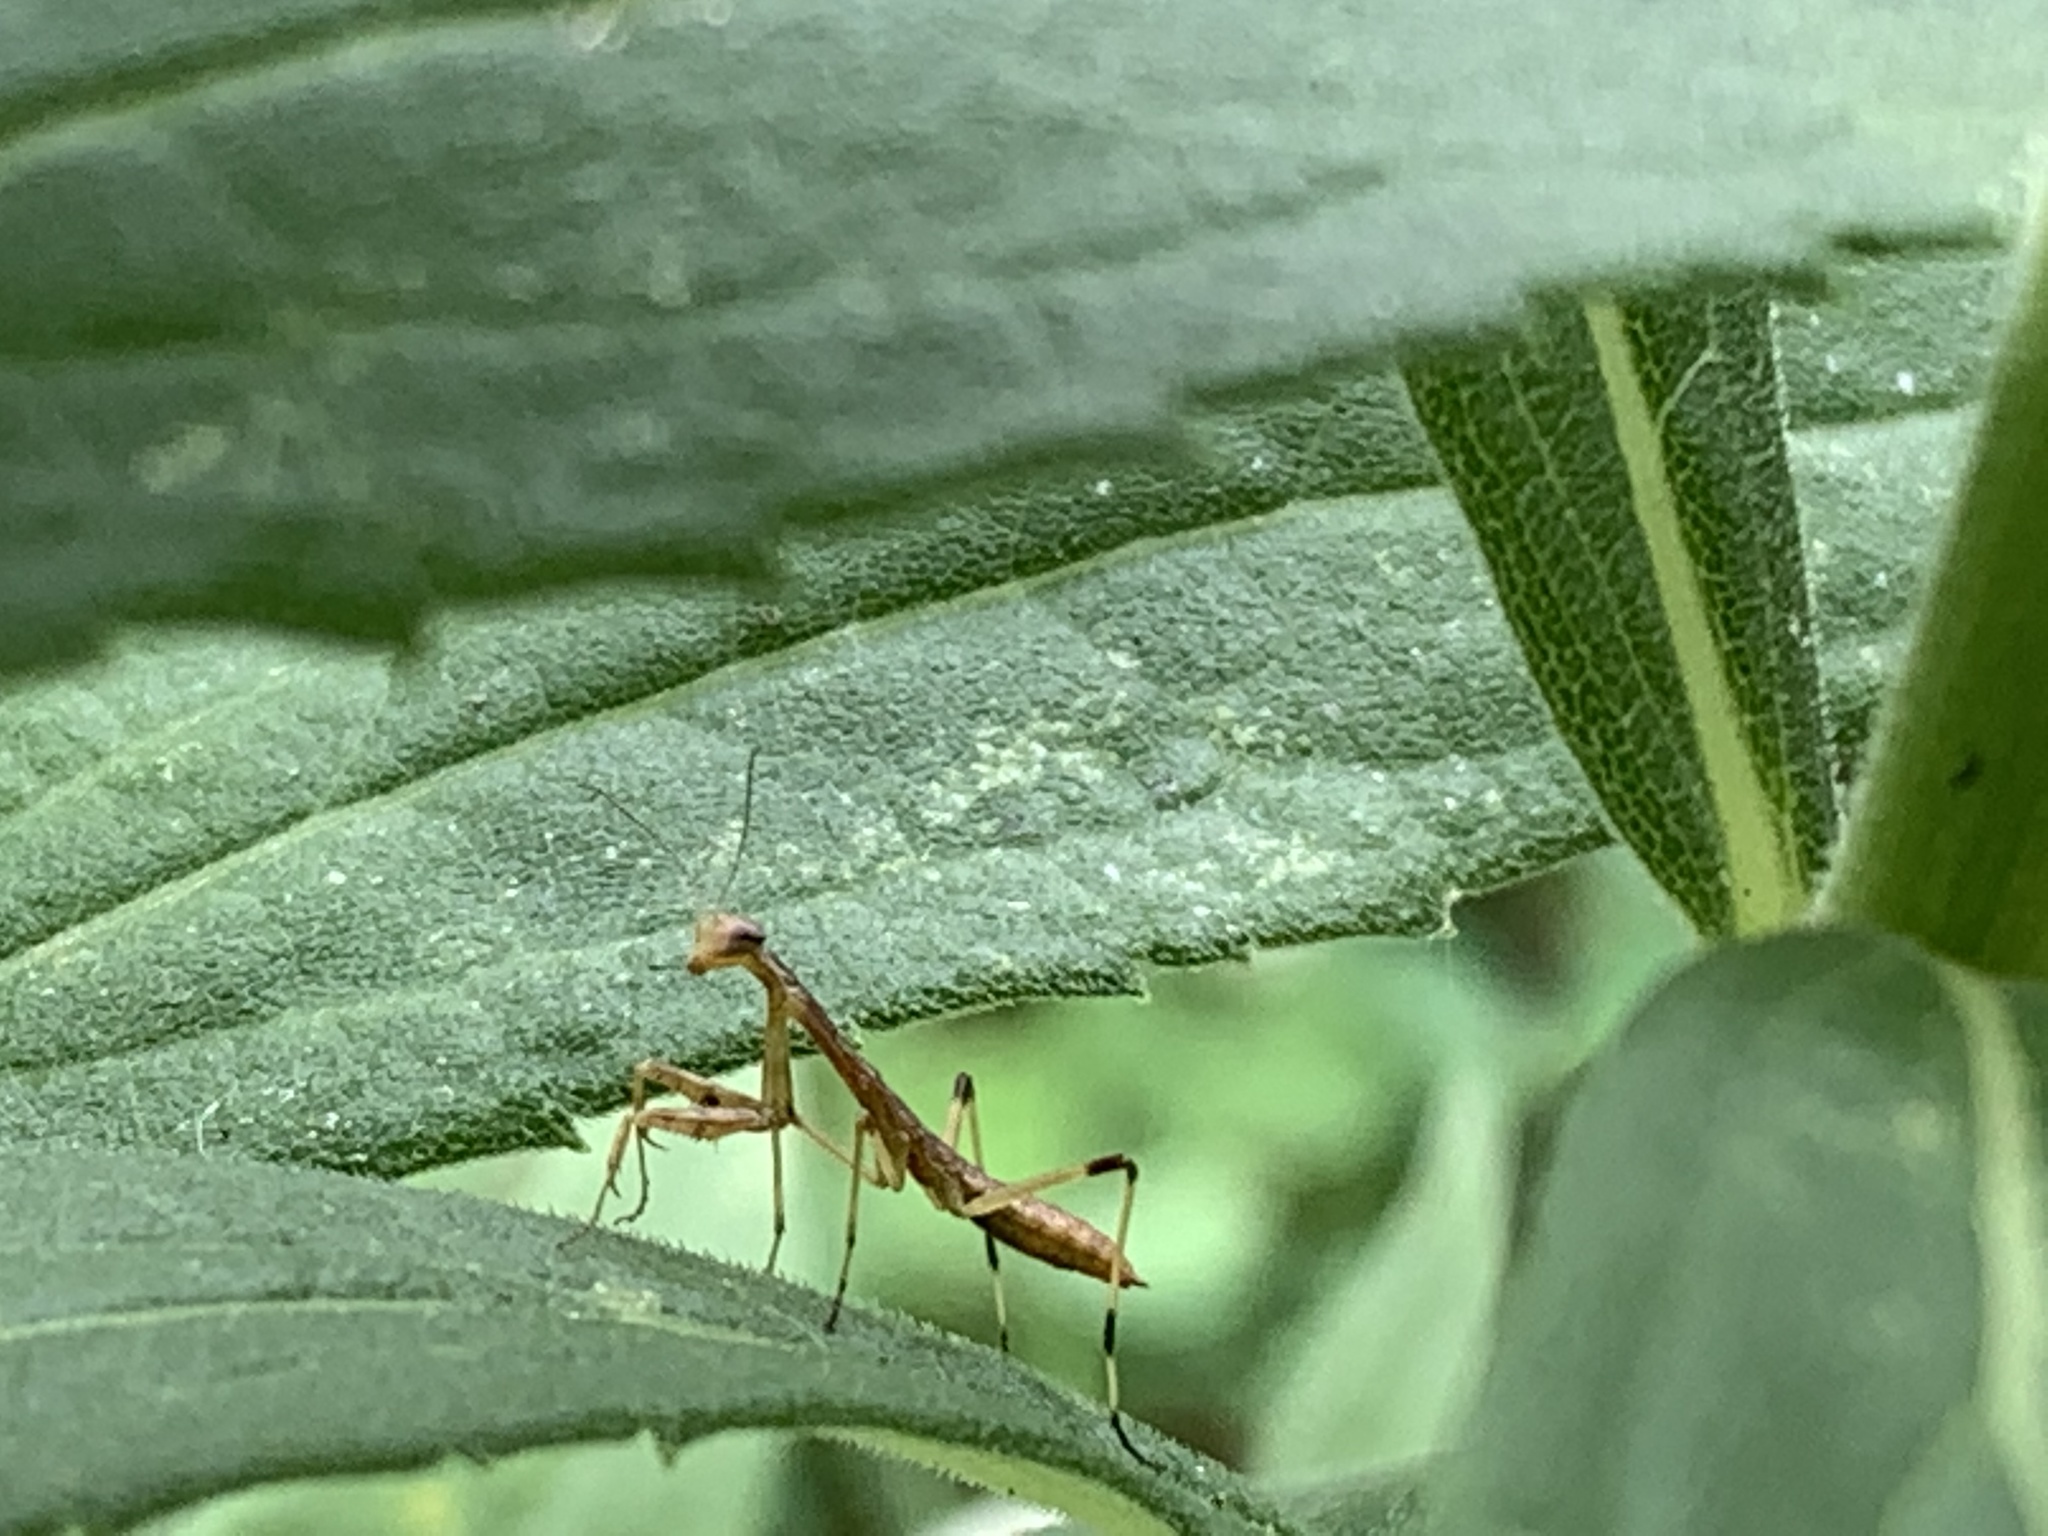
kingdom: Animalia
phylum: Arthropoda
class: Insecta
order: Mantodea
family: Mantidae
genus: Stagmomantis
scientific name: Stagmomantis carolina
